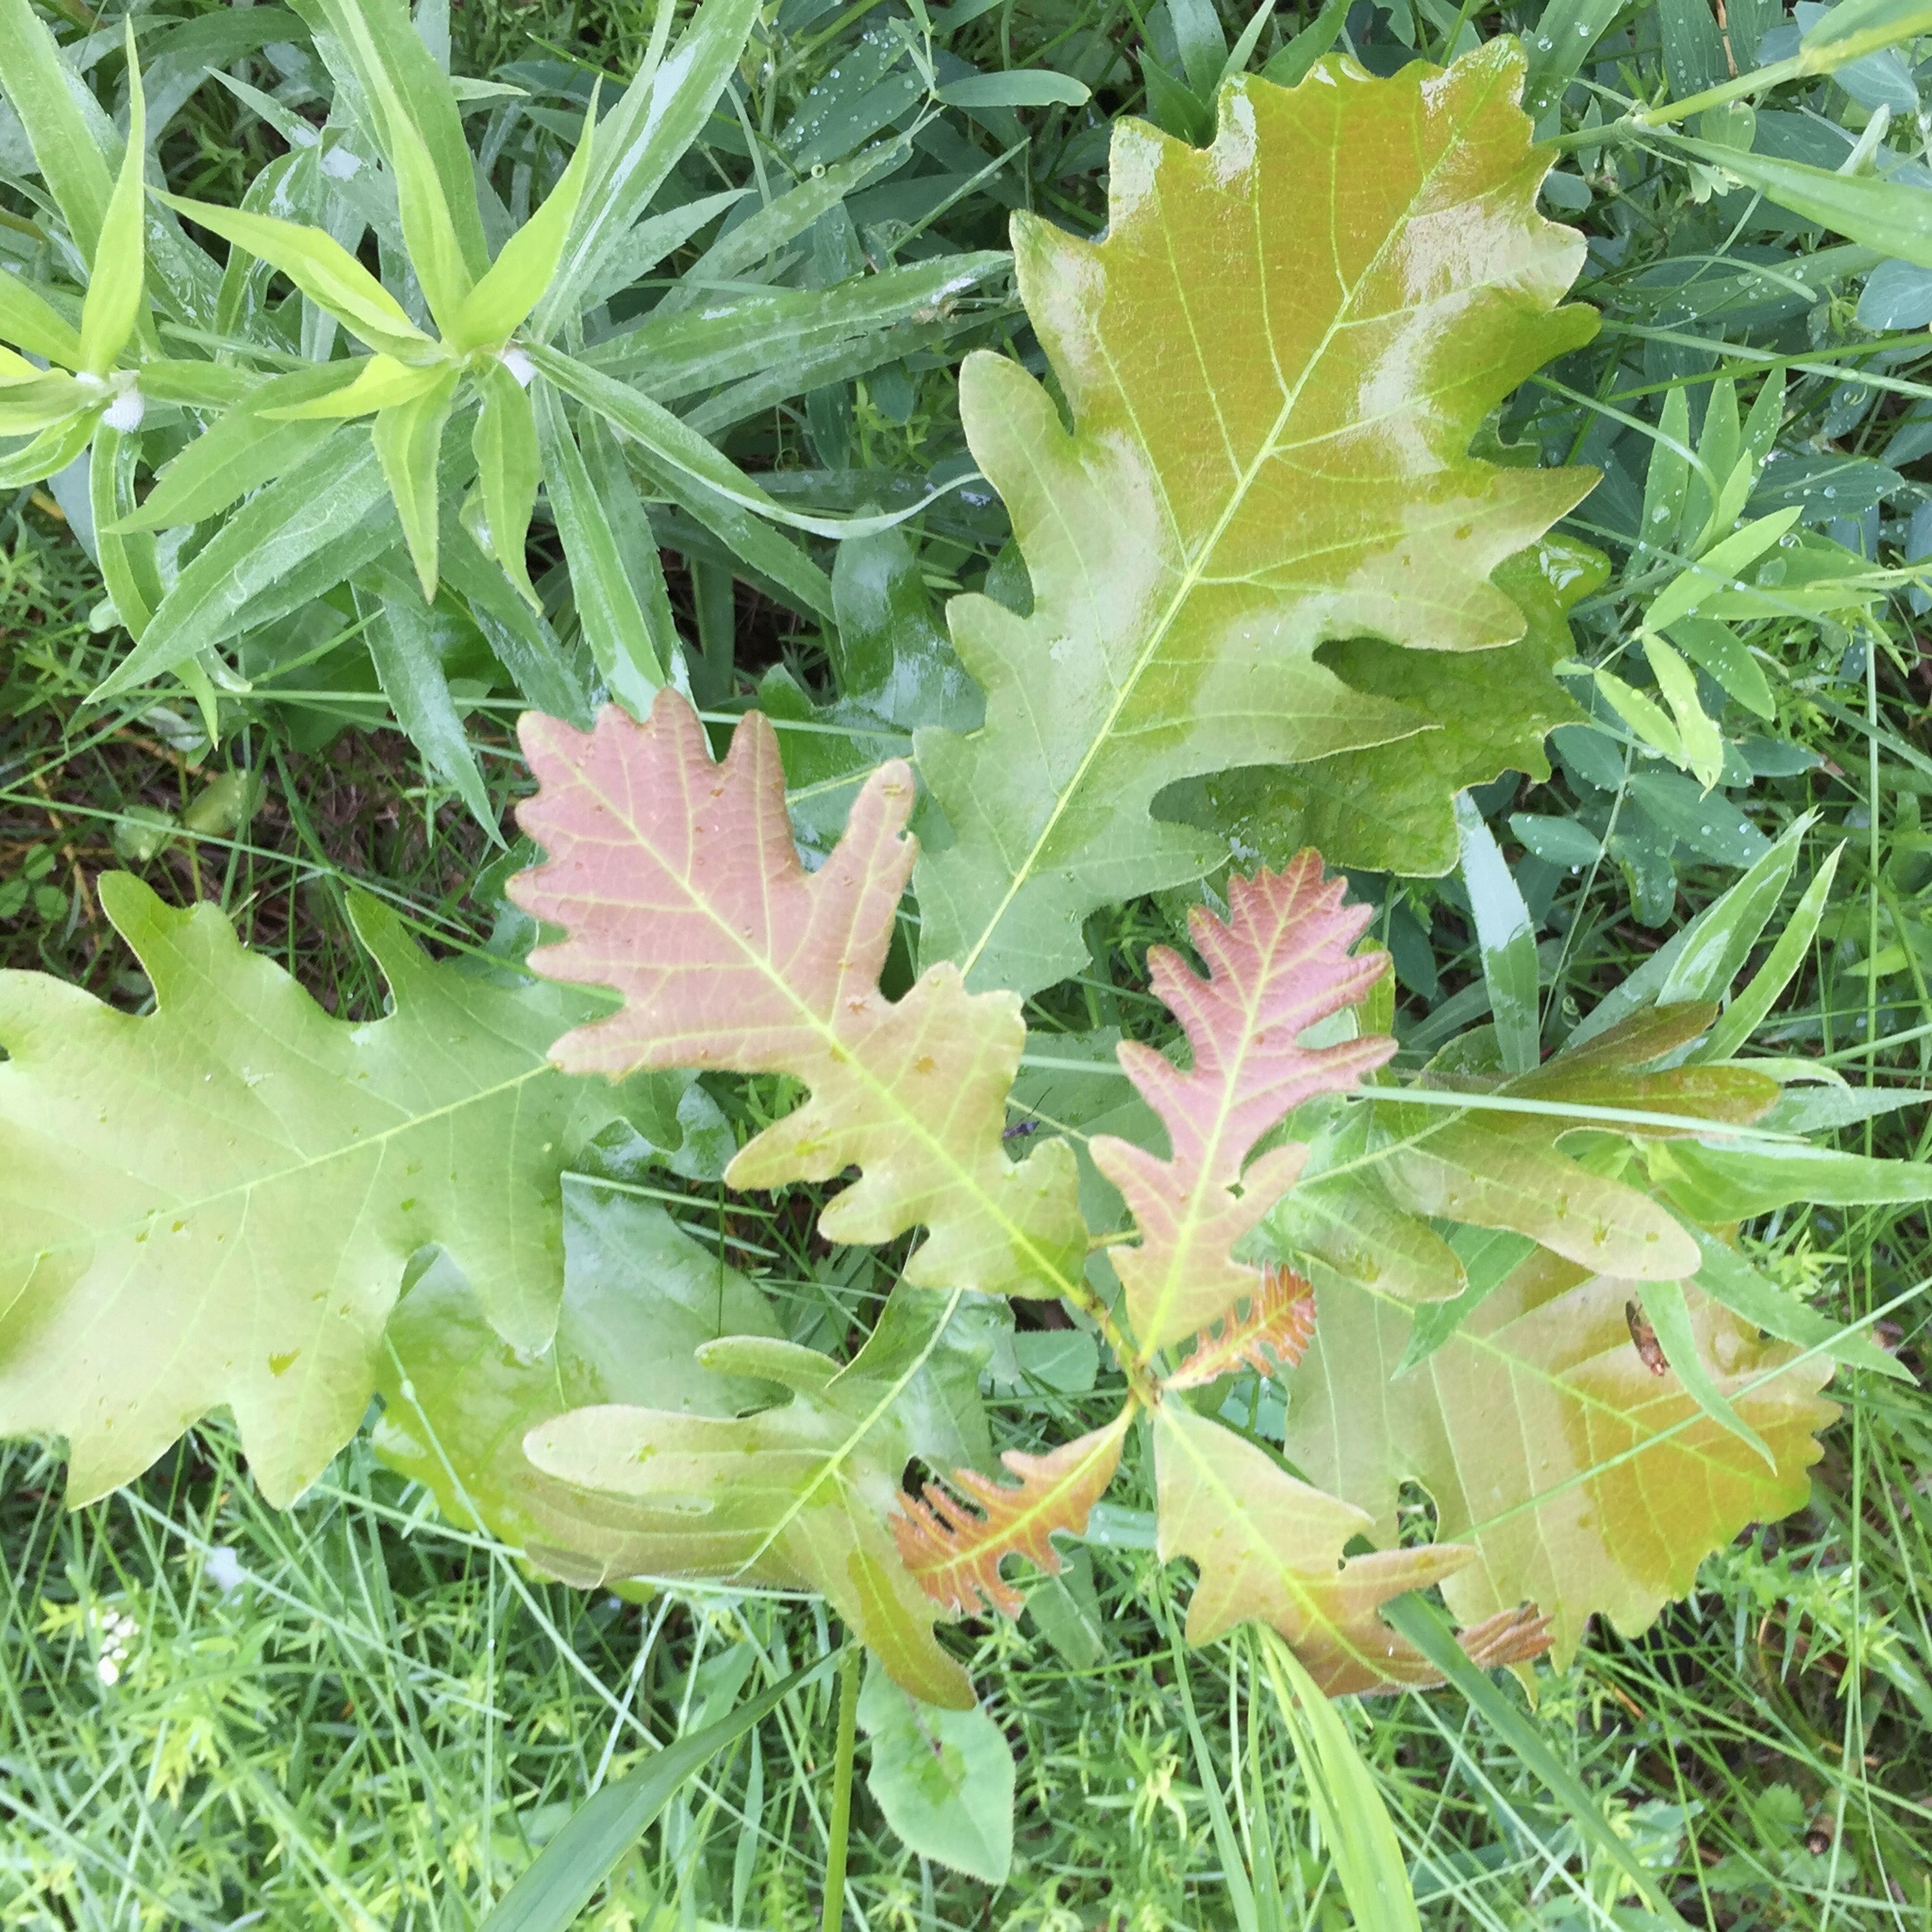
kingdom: Plantae
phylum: Tracheophyta
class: Magnoliopsida
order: Fagales
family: Fagaceae
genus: Quercus
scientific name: Quercus macrocarpa
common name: Bur oak
